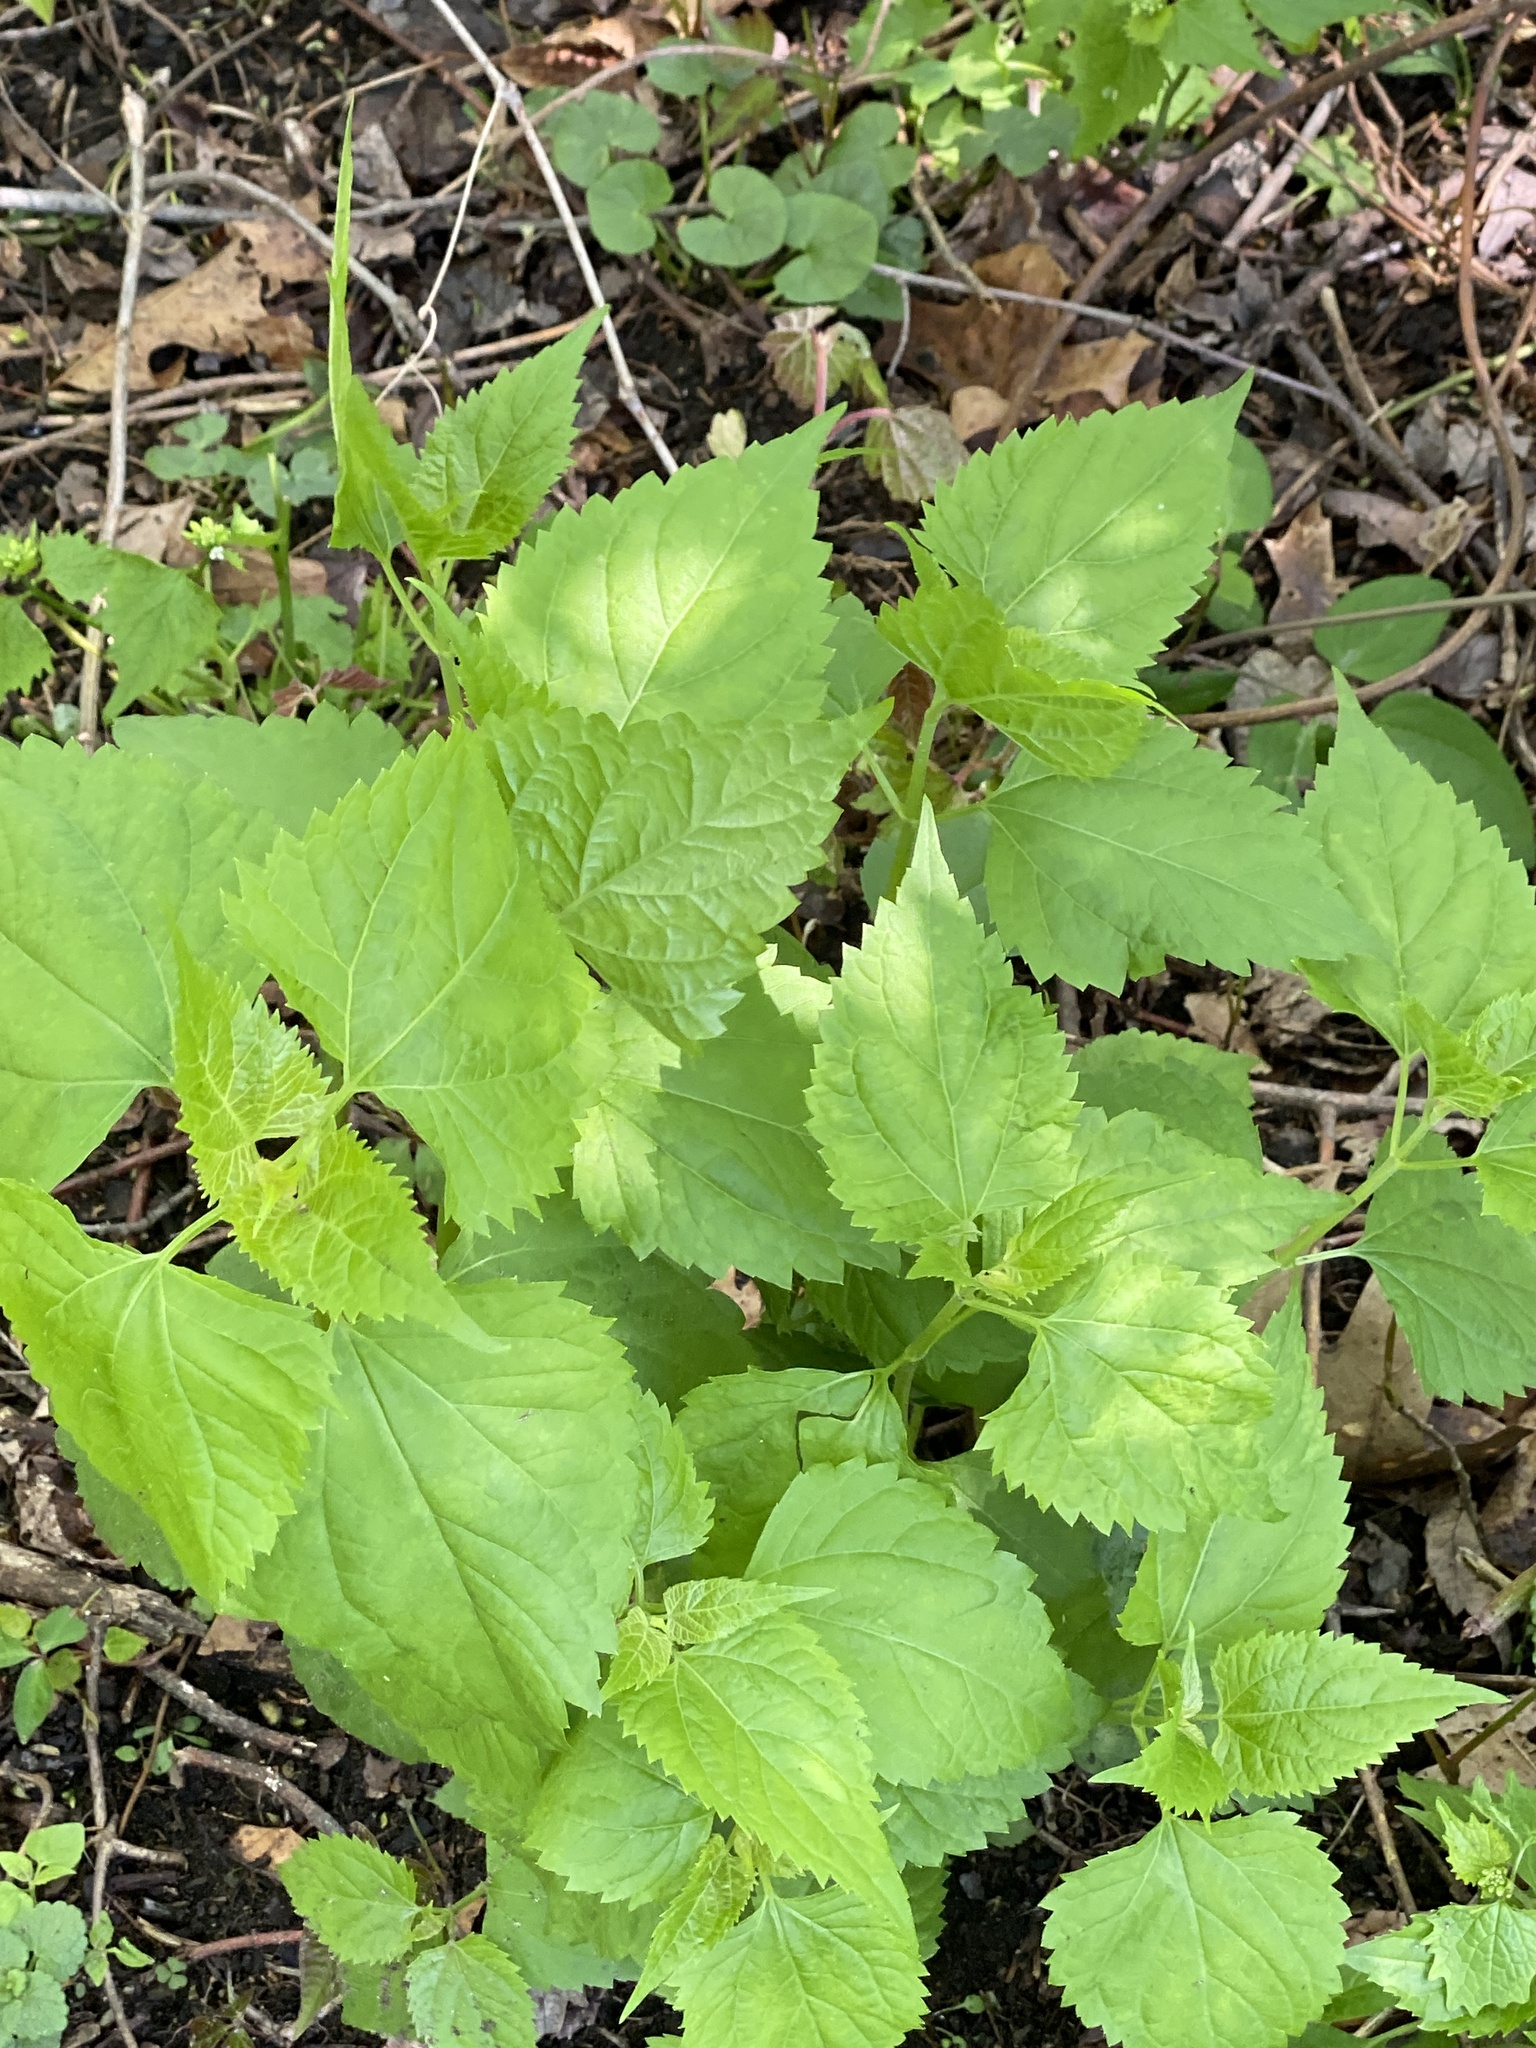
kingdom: Plantae
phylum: Tracheophyta
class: Magnoliopsida
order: Asterales
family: Asteraceae
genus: Ageratina
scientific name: Ageratina altissima
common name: White snakeroot
